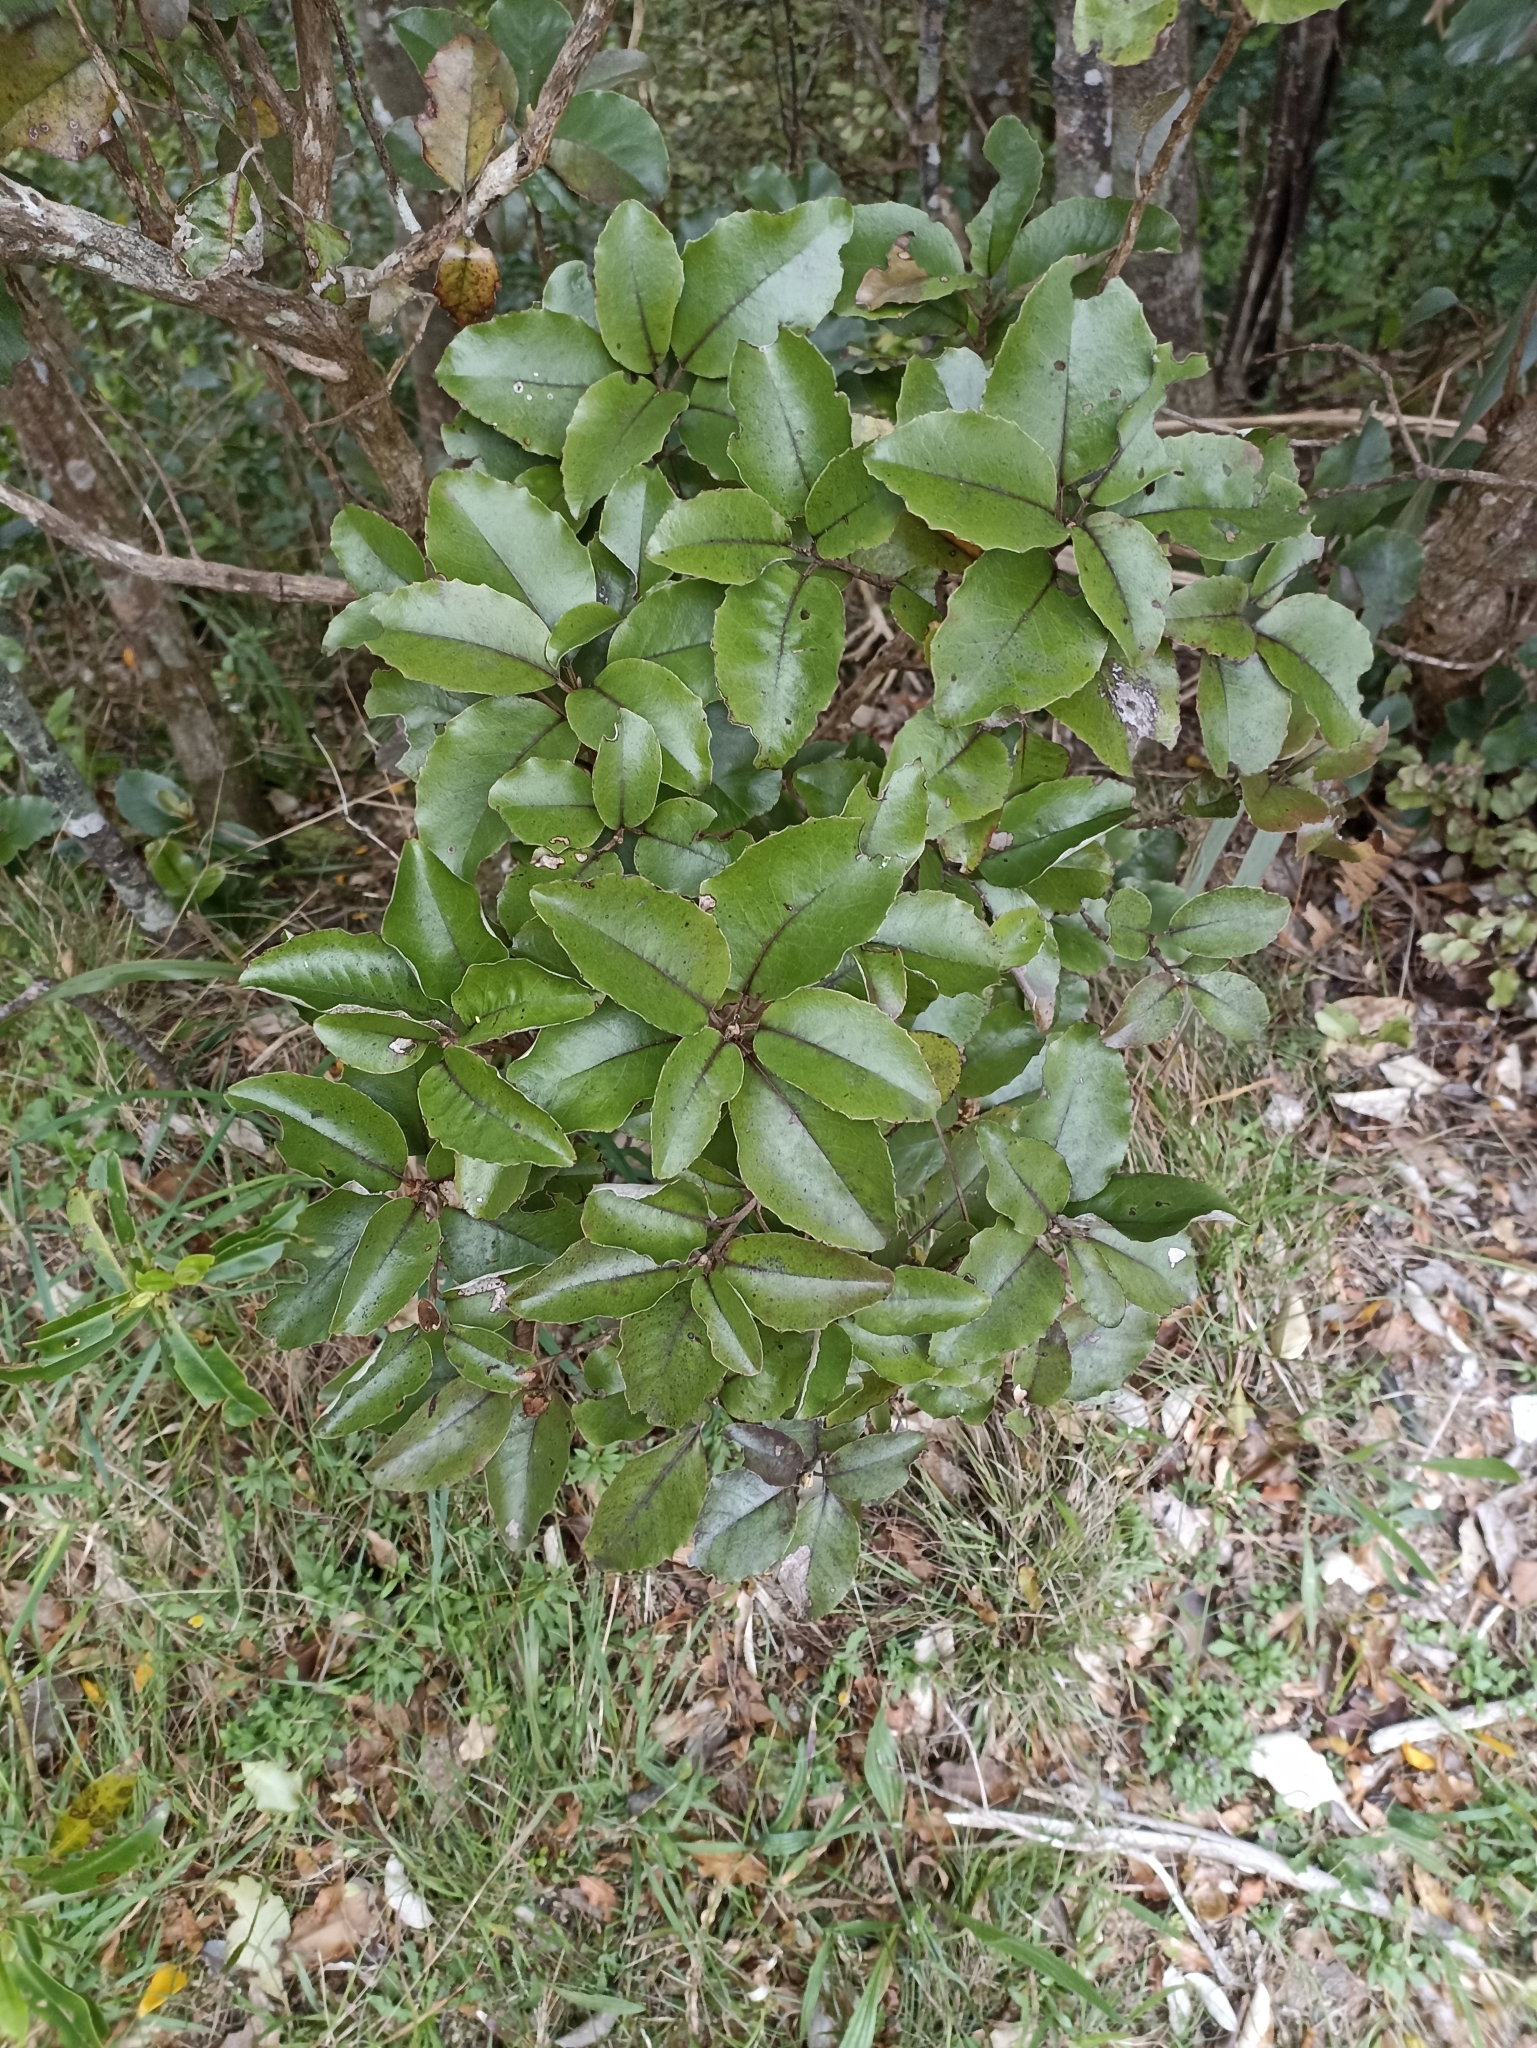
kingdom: Plantae
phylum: Tracheophyta
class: Magnoliopsida
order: Asterales
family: Asteraceae
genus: Olearia
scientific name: Olearia furfuracea
